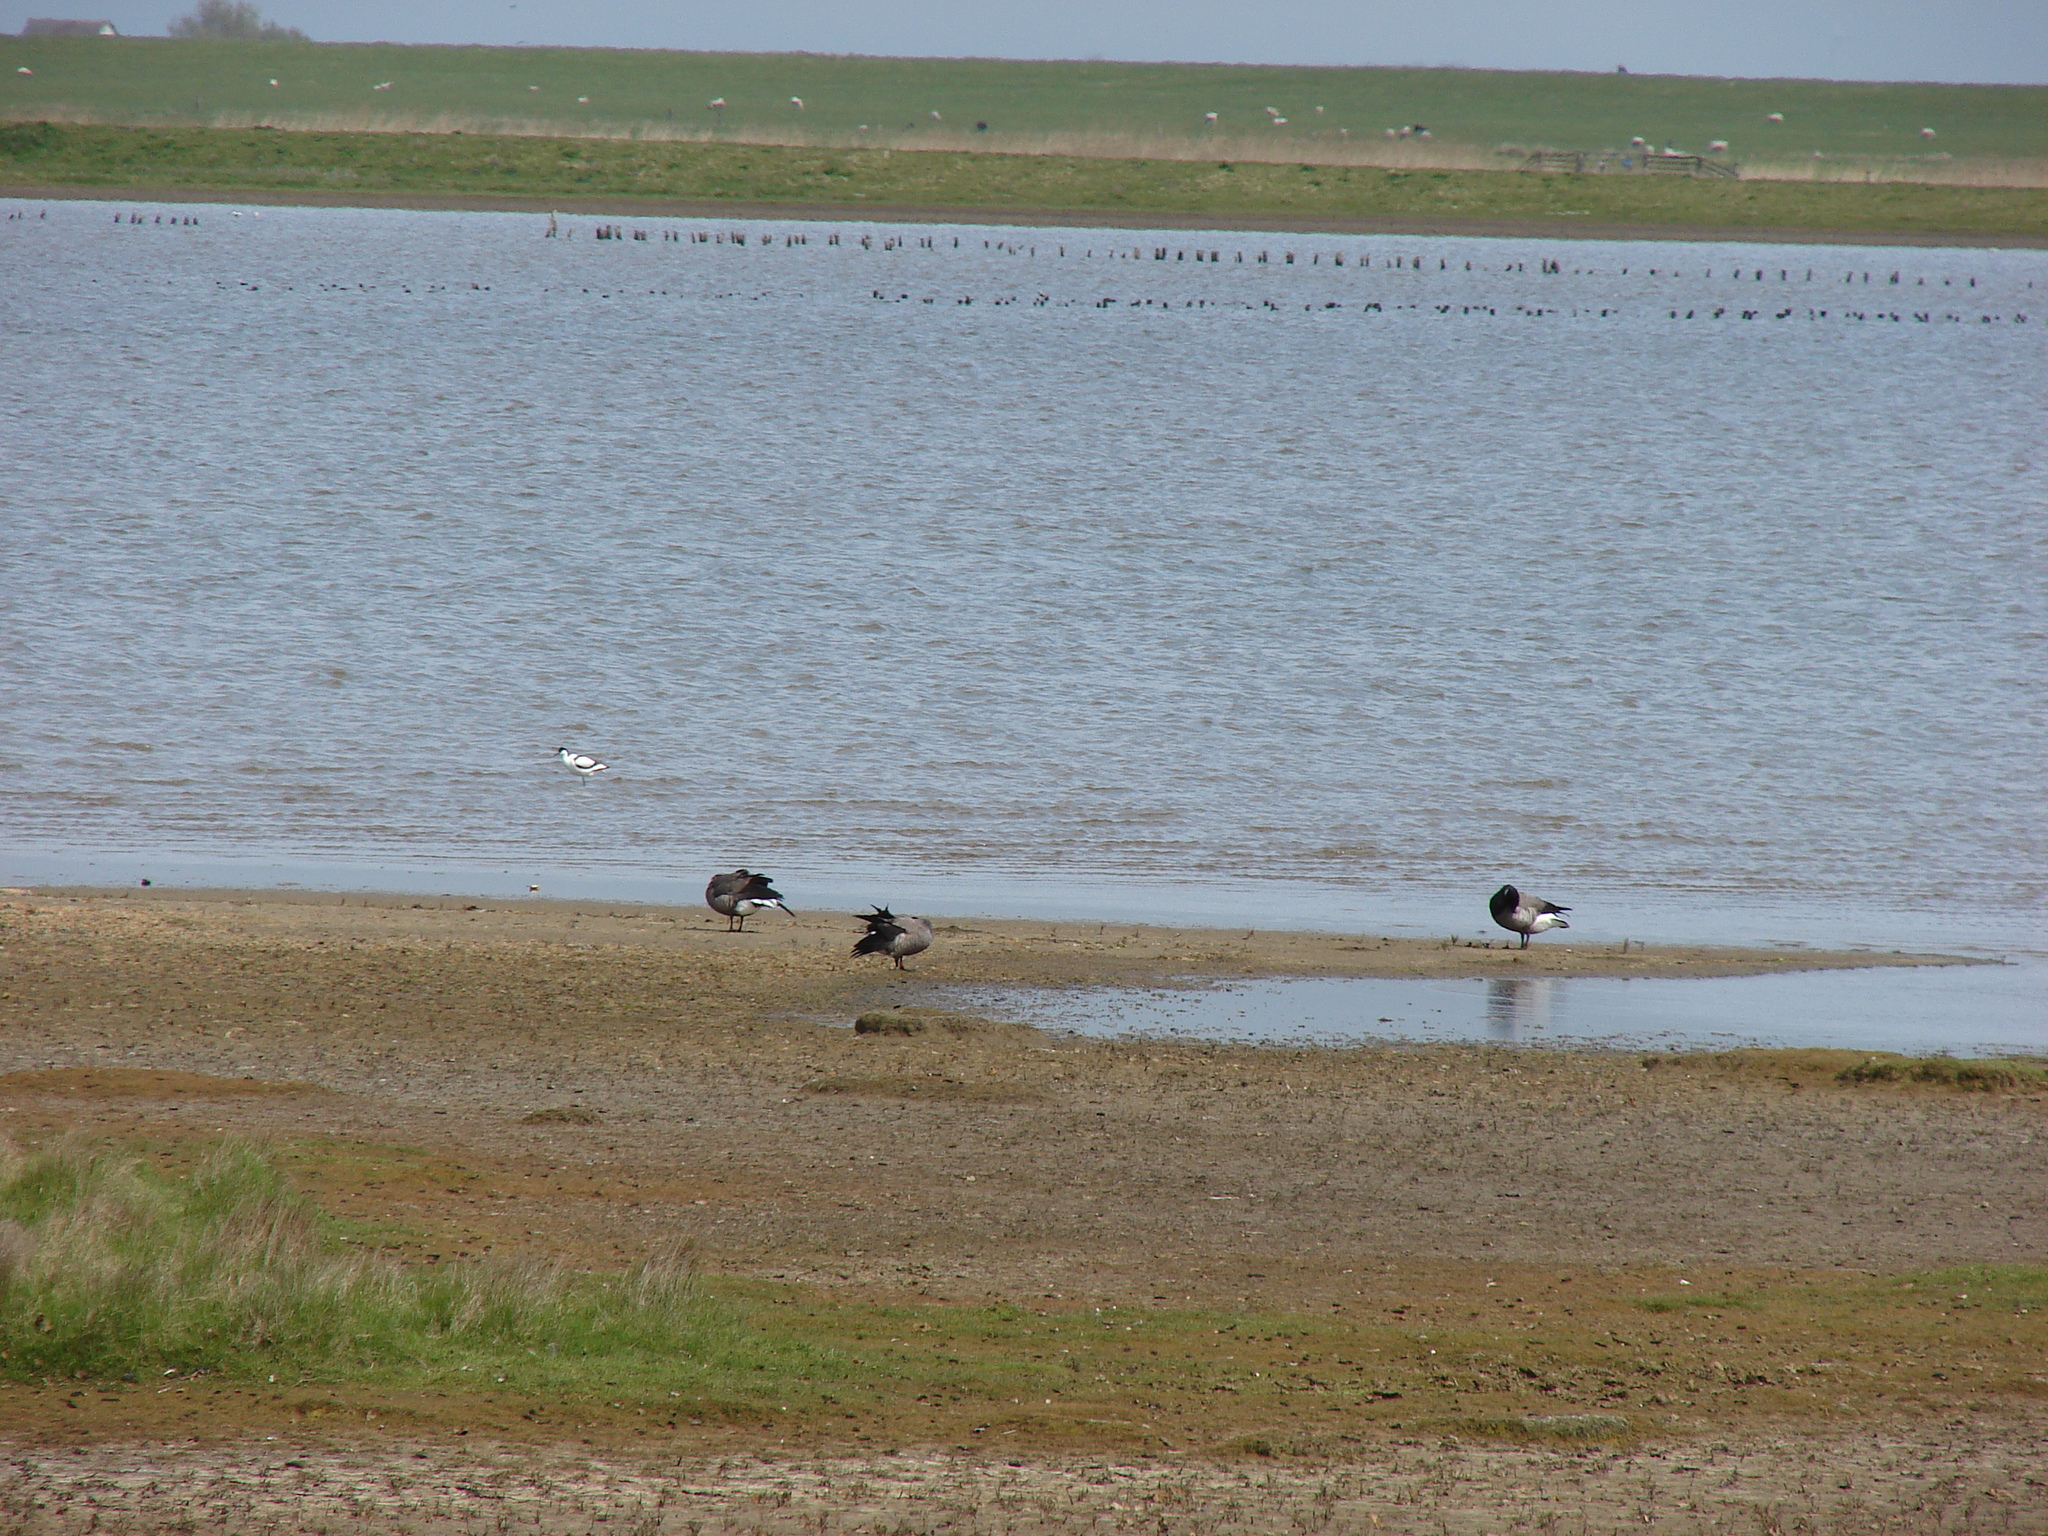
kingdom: Animalia
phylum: Chordata
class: Aves
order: Anseriformes
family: Anatidae
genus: Branta
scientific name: Branta bernicla
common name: Brant goose
